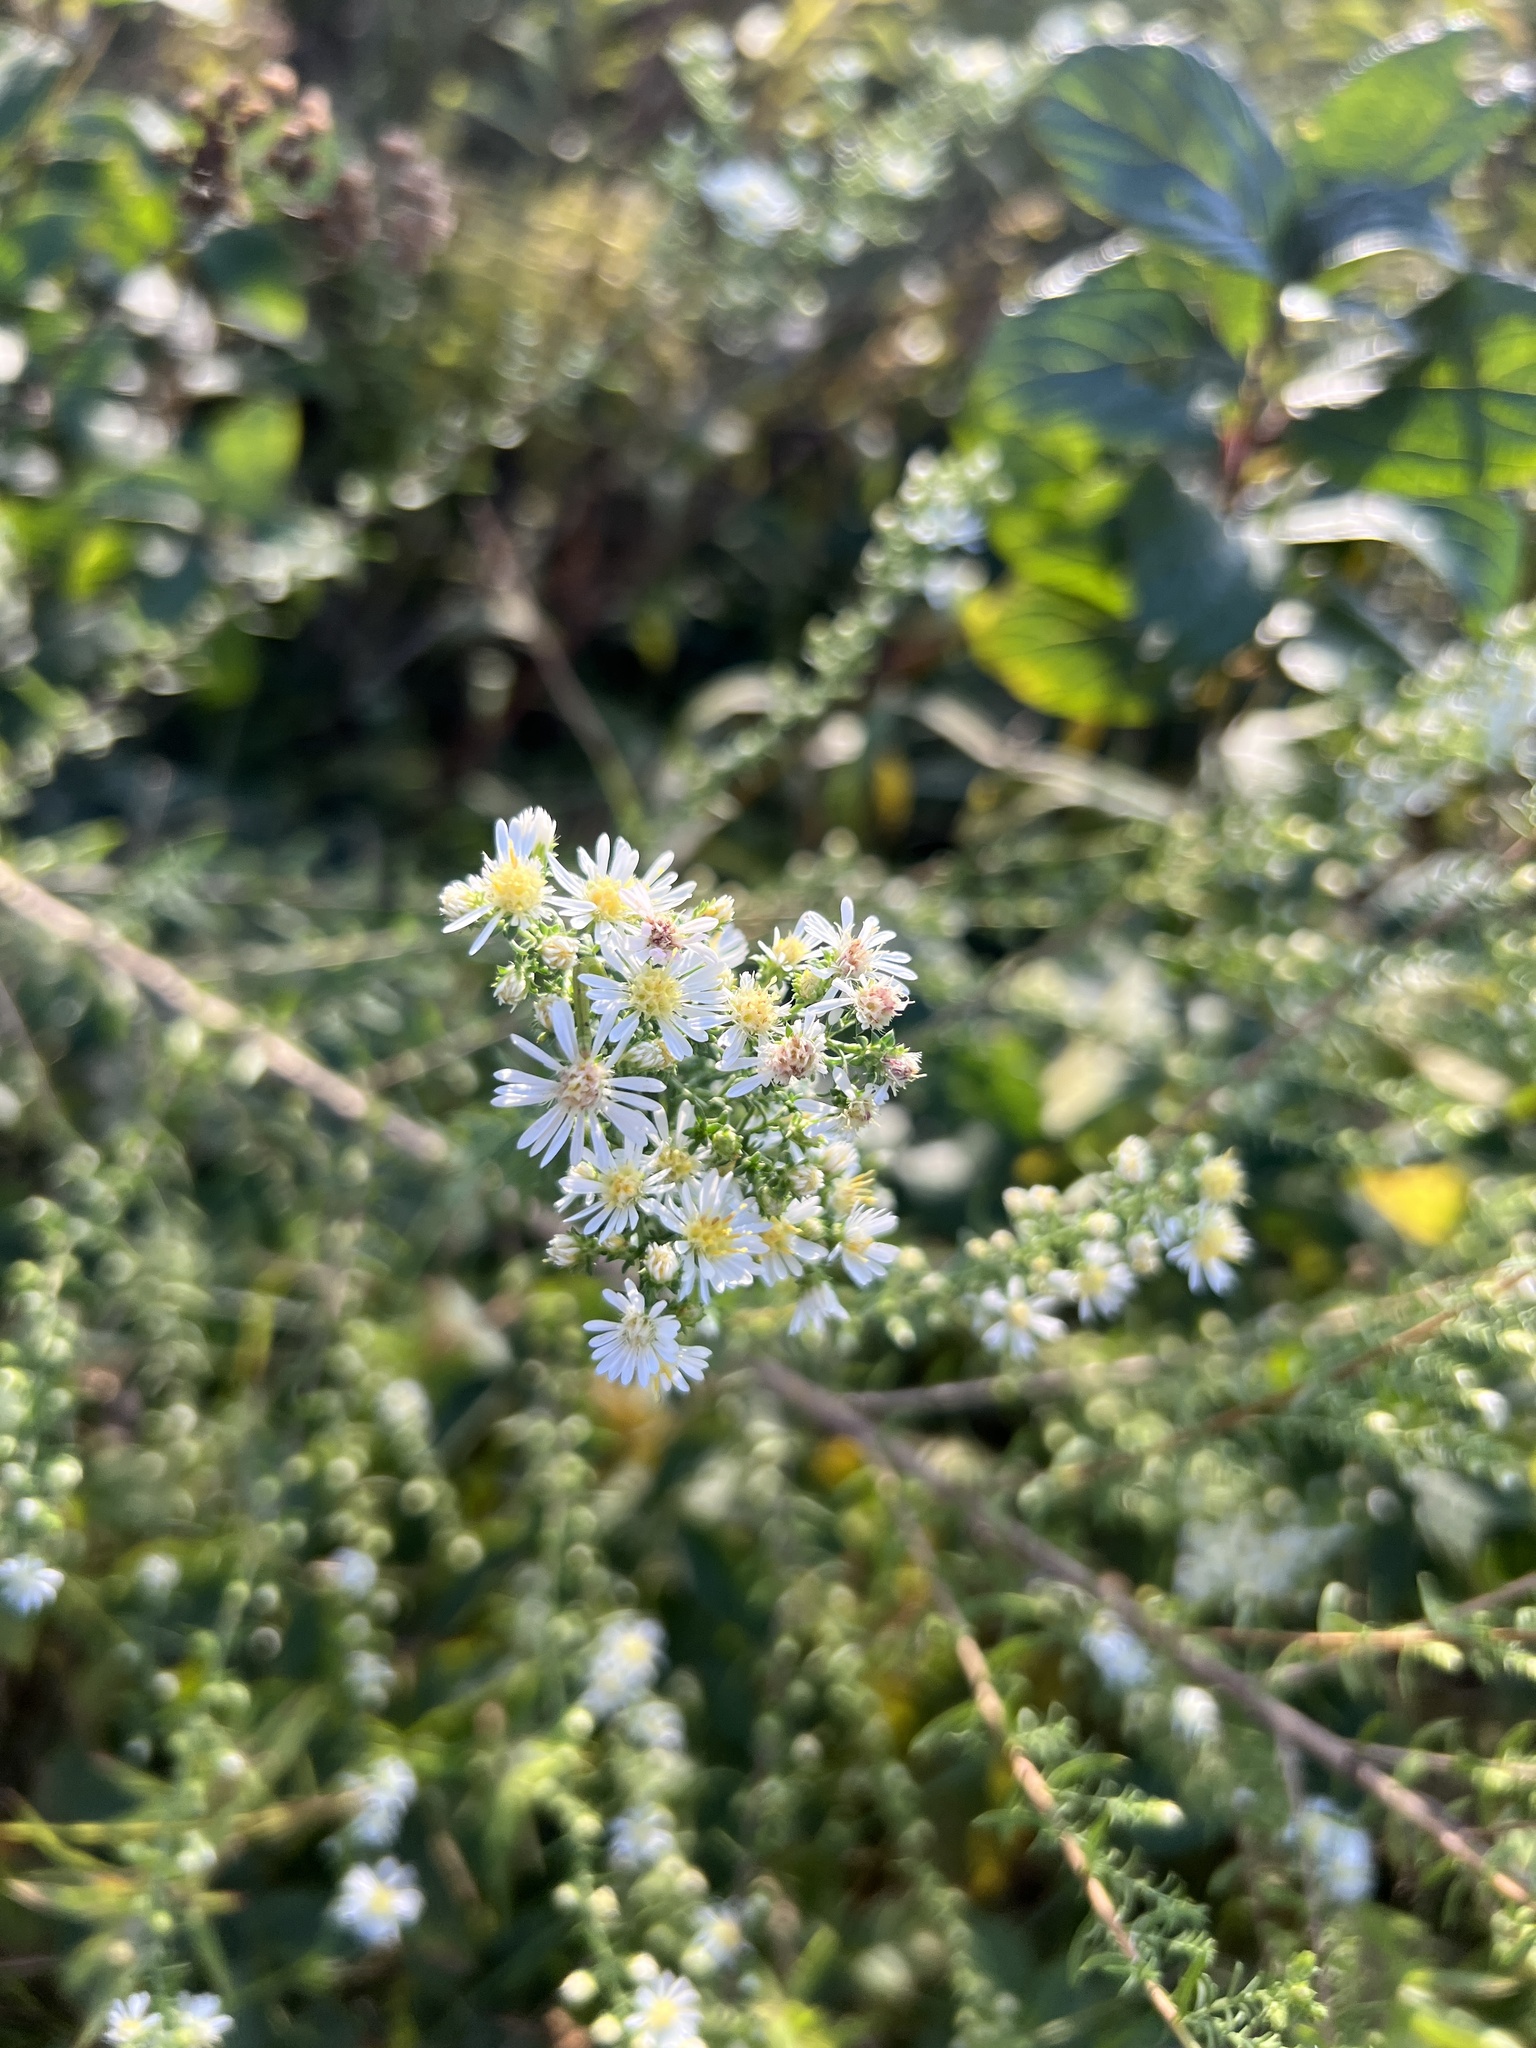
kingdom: Plantae
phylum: Tracheophyta
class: Magnoliopsida
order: Asterales
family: Asteraceae
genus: Symphyotrichum
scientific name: Symphyotrichum ericoides
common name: Heath aster
